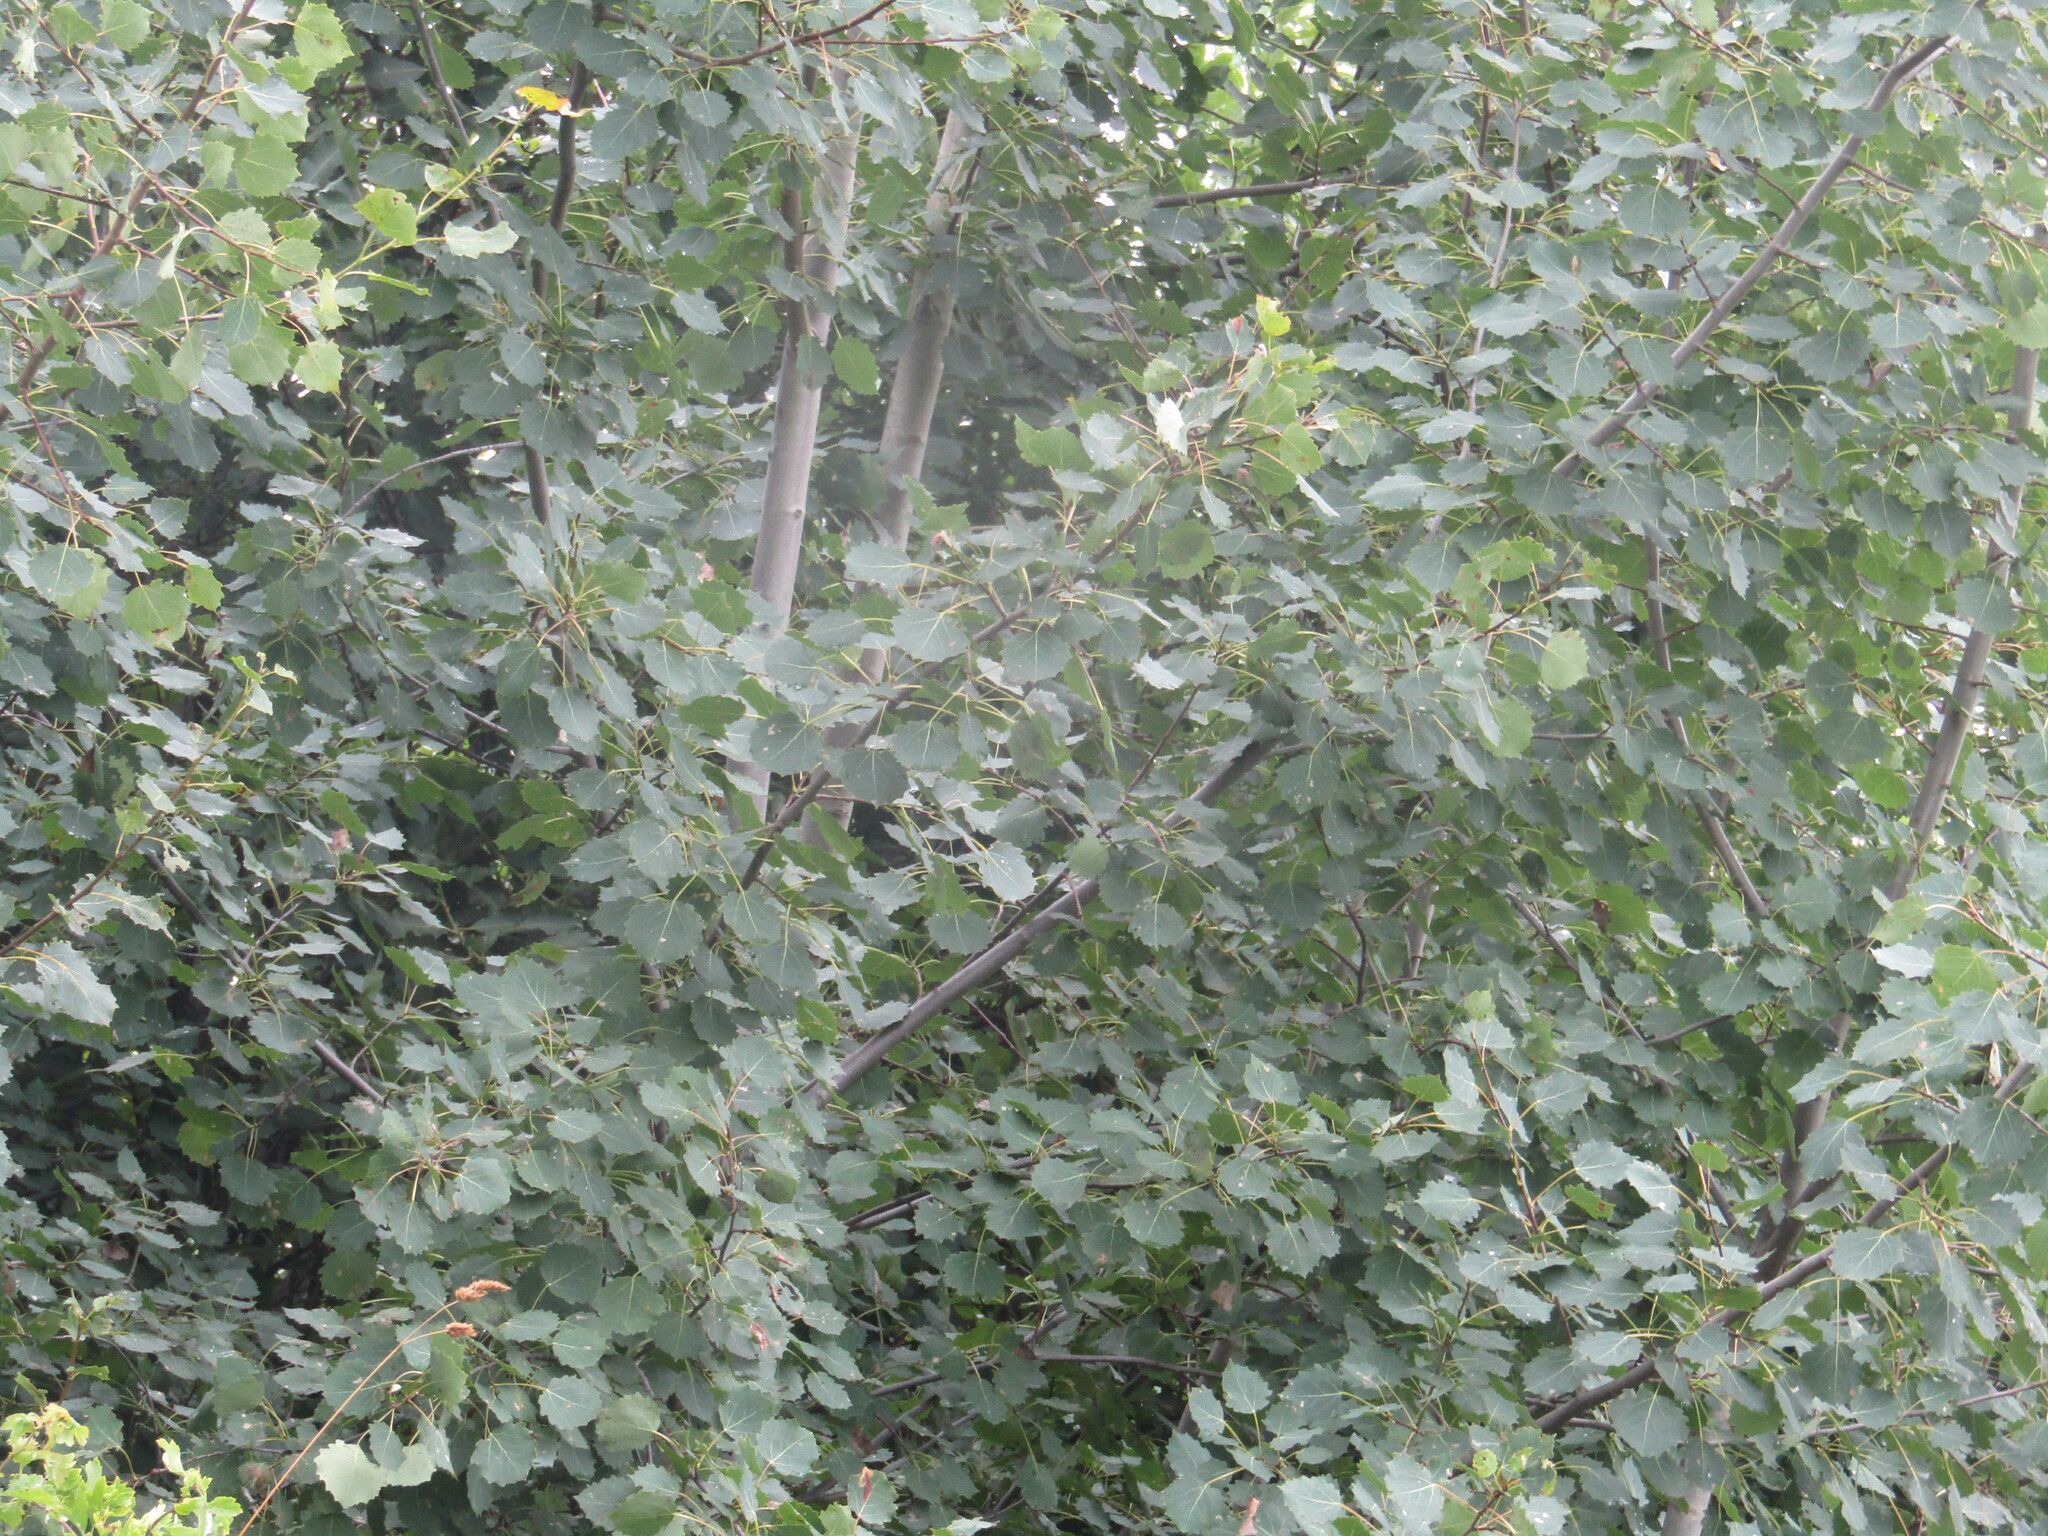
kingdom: Plantae
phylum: Tracheophyta
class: Magnoliopsida
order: Malpighiales
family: Salicaceae
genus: Populus
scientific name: Populus tremula
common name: European aspen
